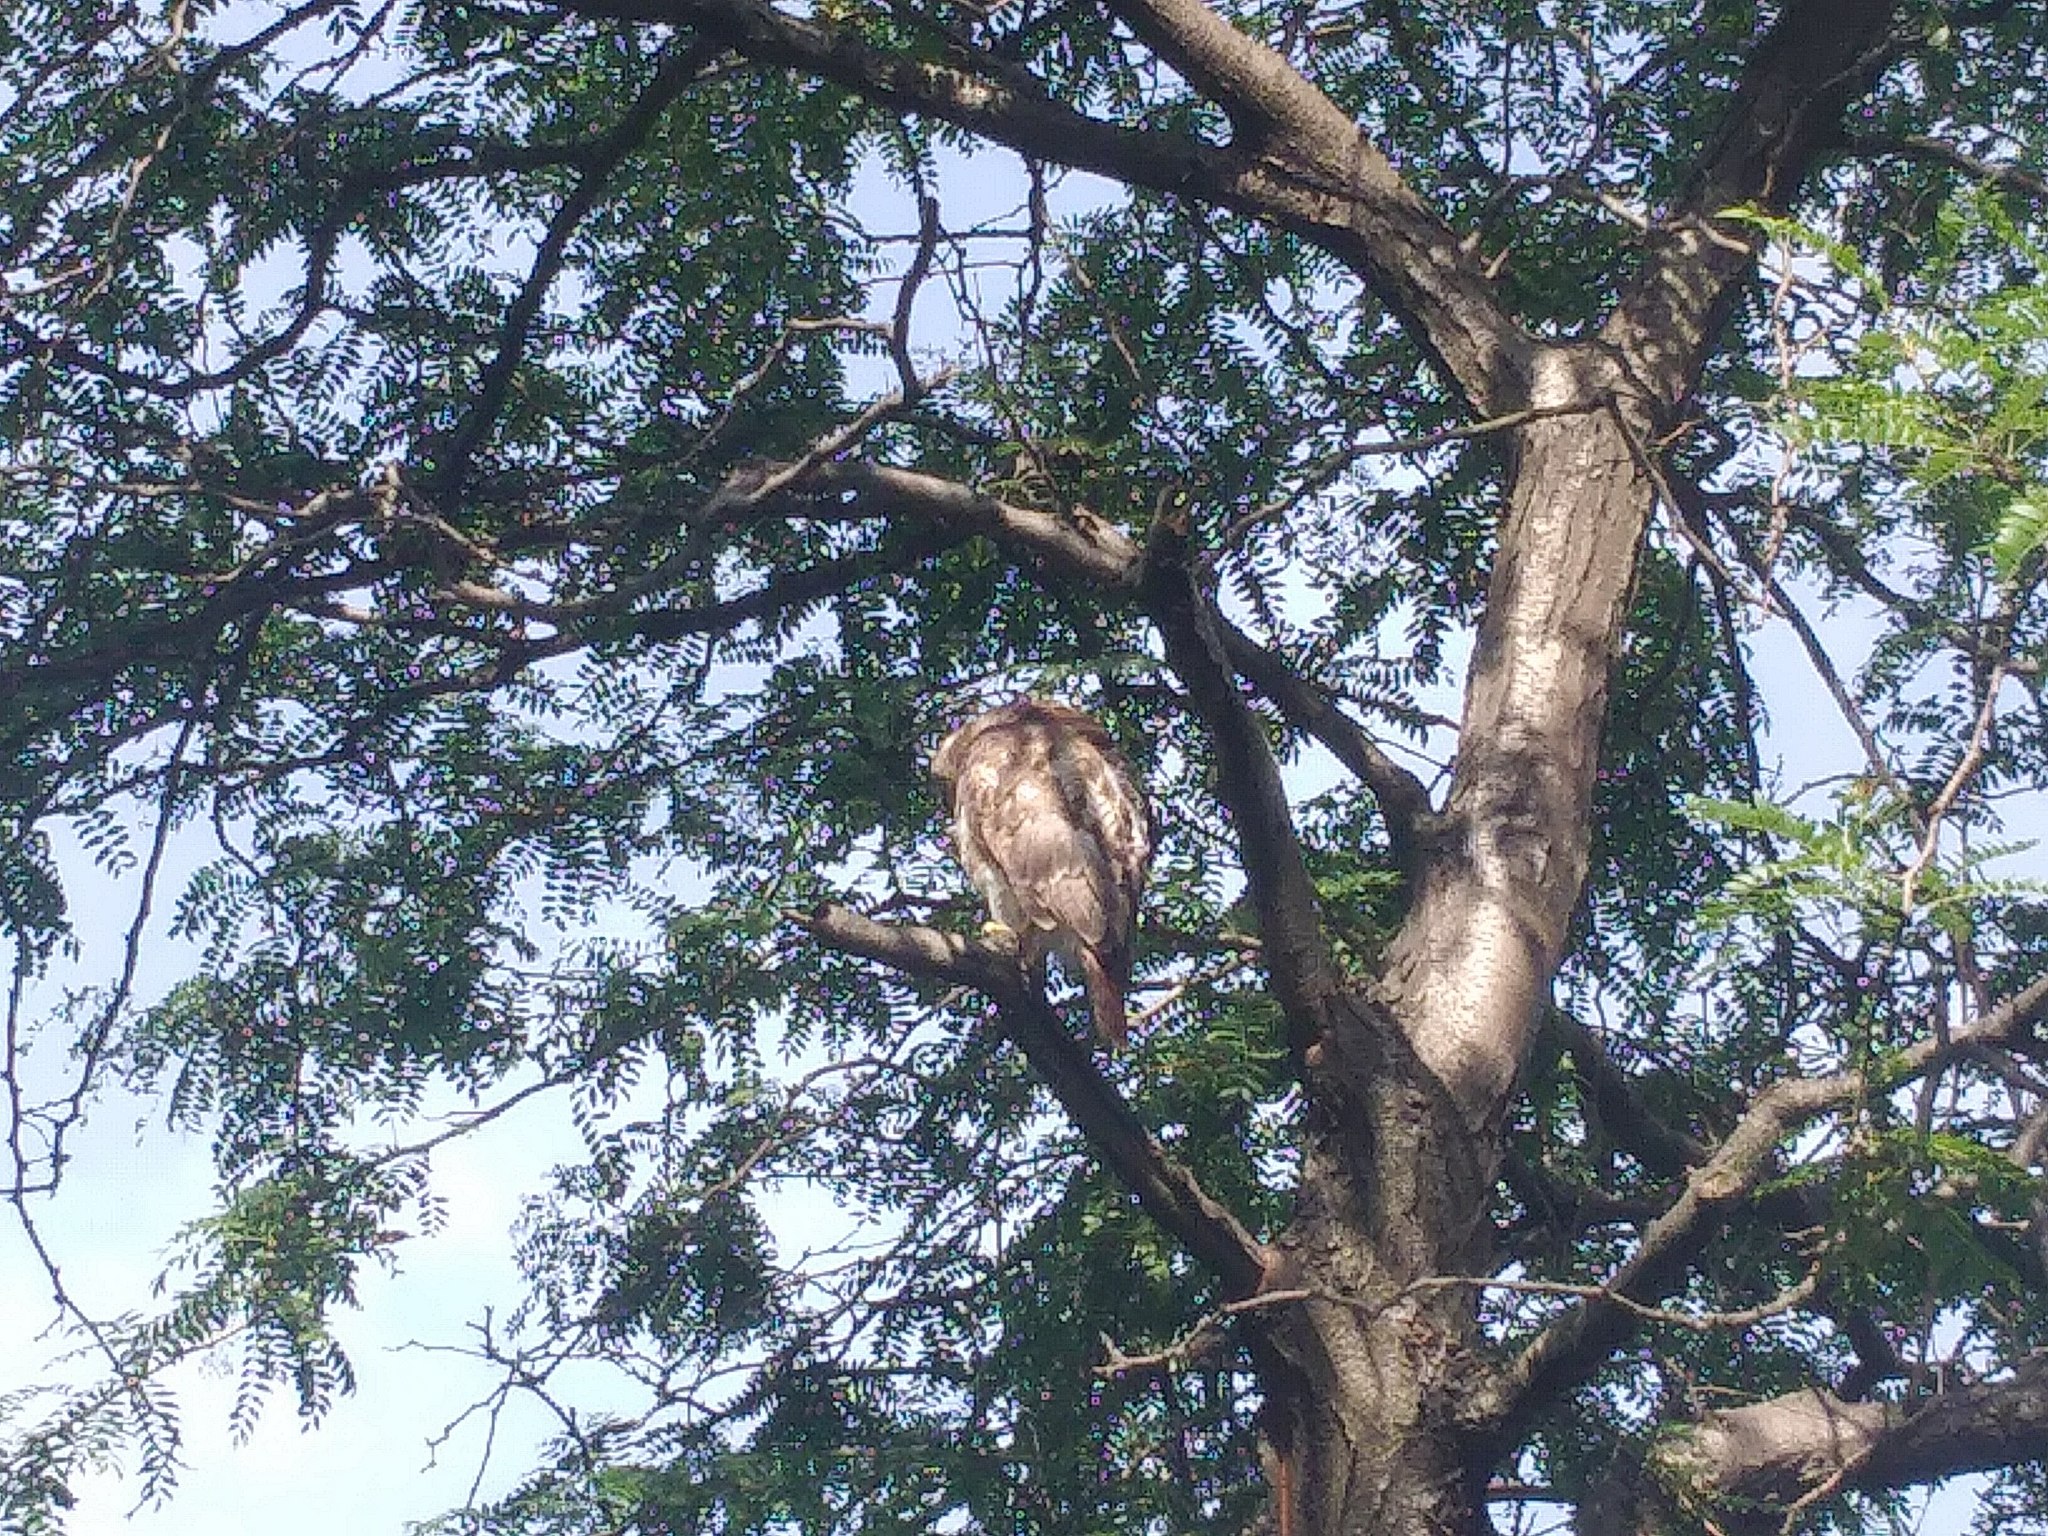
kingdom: Animalia
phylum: Chordata
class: Aves
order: Accipitriformes
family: Accipitridae
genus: Buteo
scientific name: Buteo jamaicensis
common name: Red-tailed hawk
